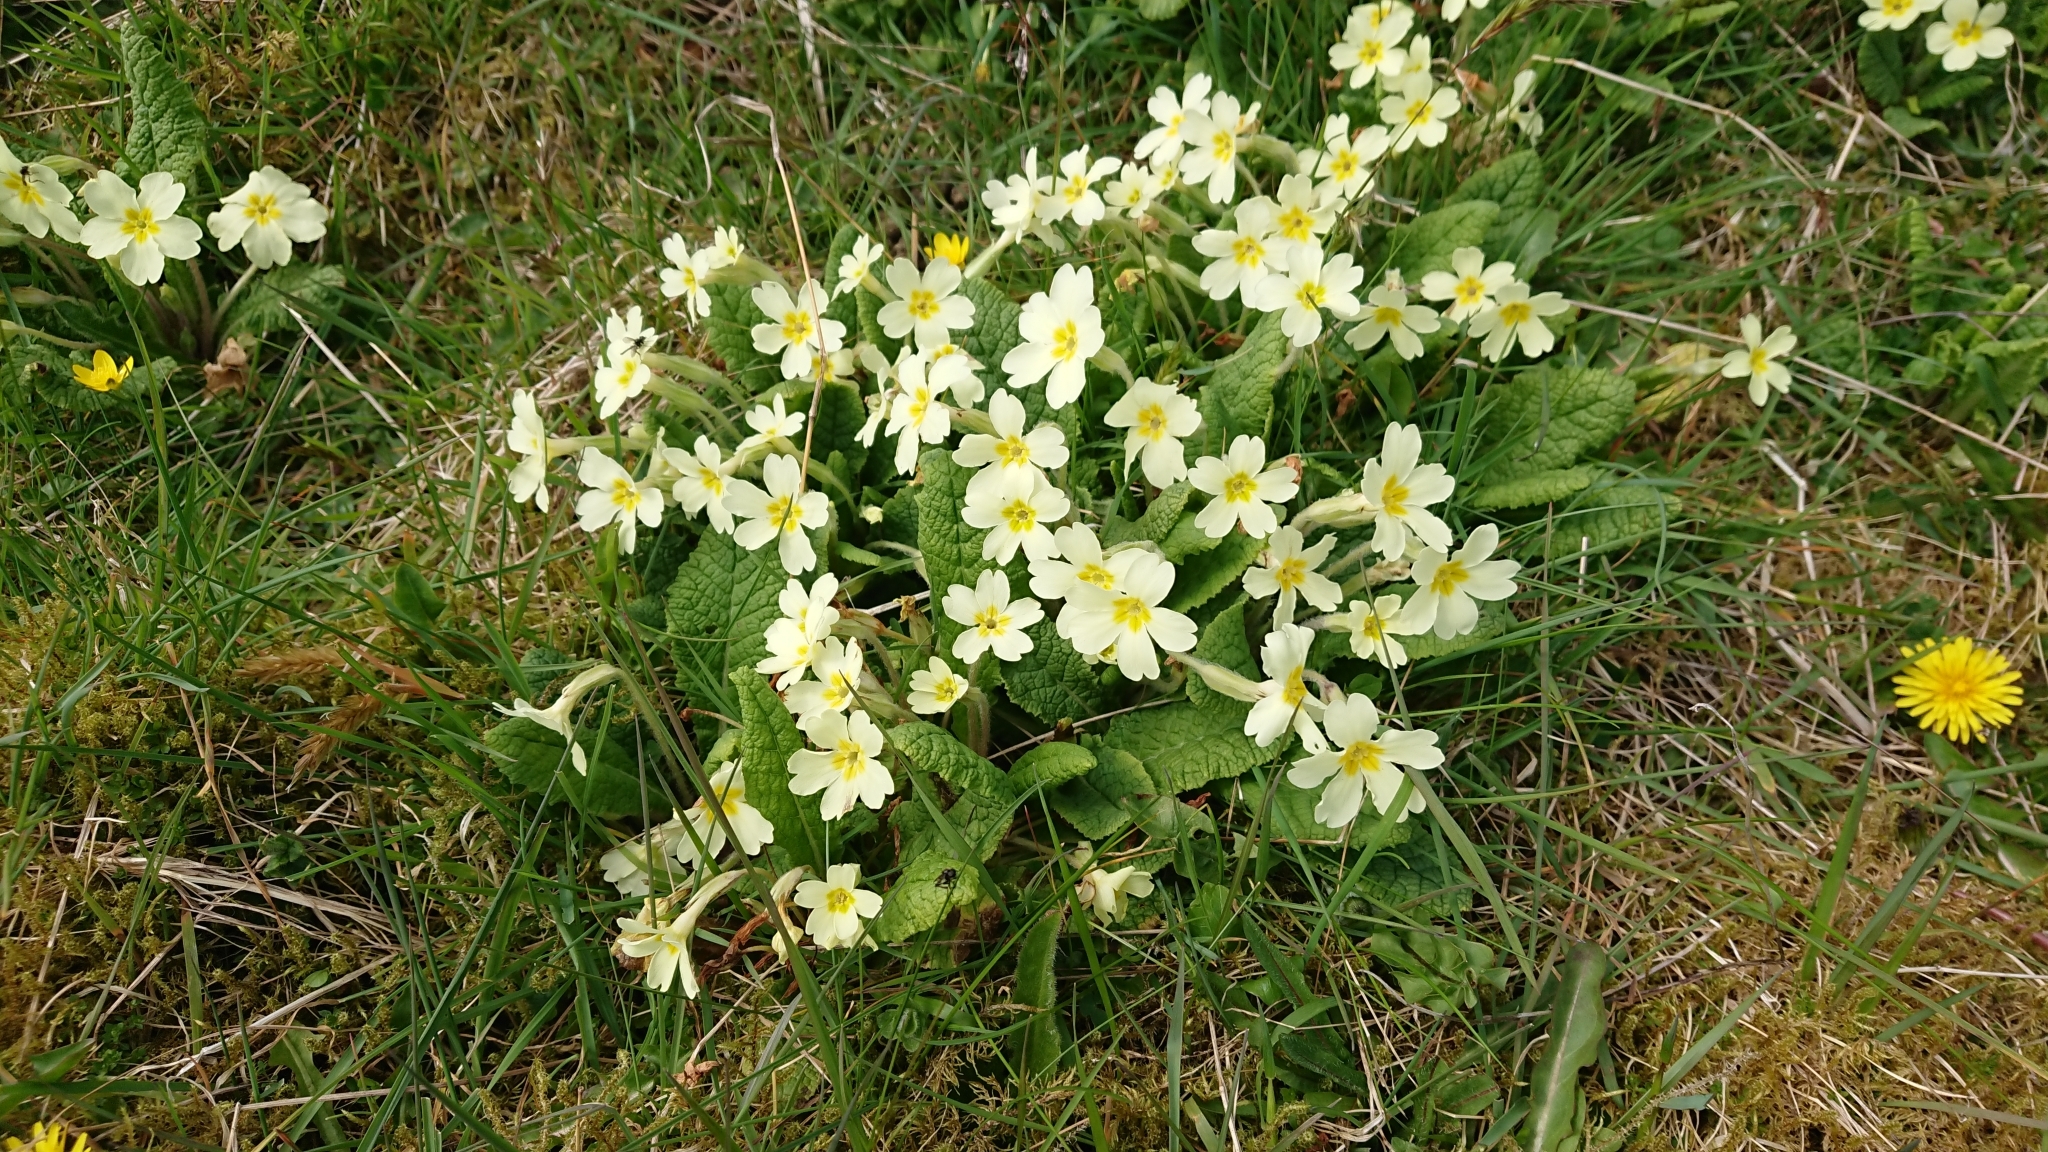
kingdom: Plantae
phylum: Tracheophyta
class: Magnoliopsida
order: Ericales
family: Primulaceae
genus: Primula
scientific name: Primula vulgaris
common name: Primrose
